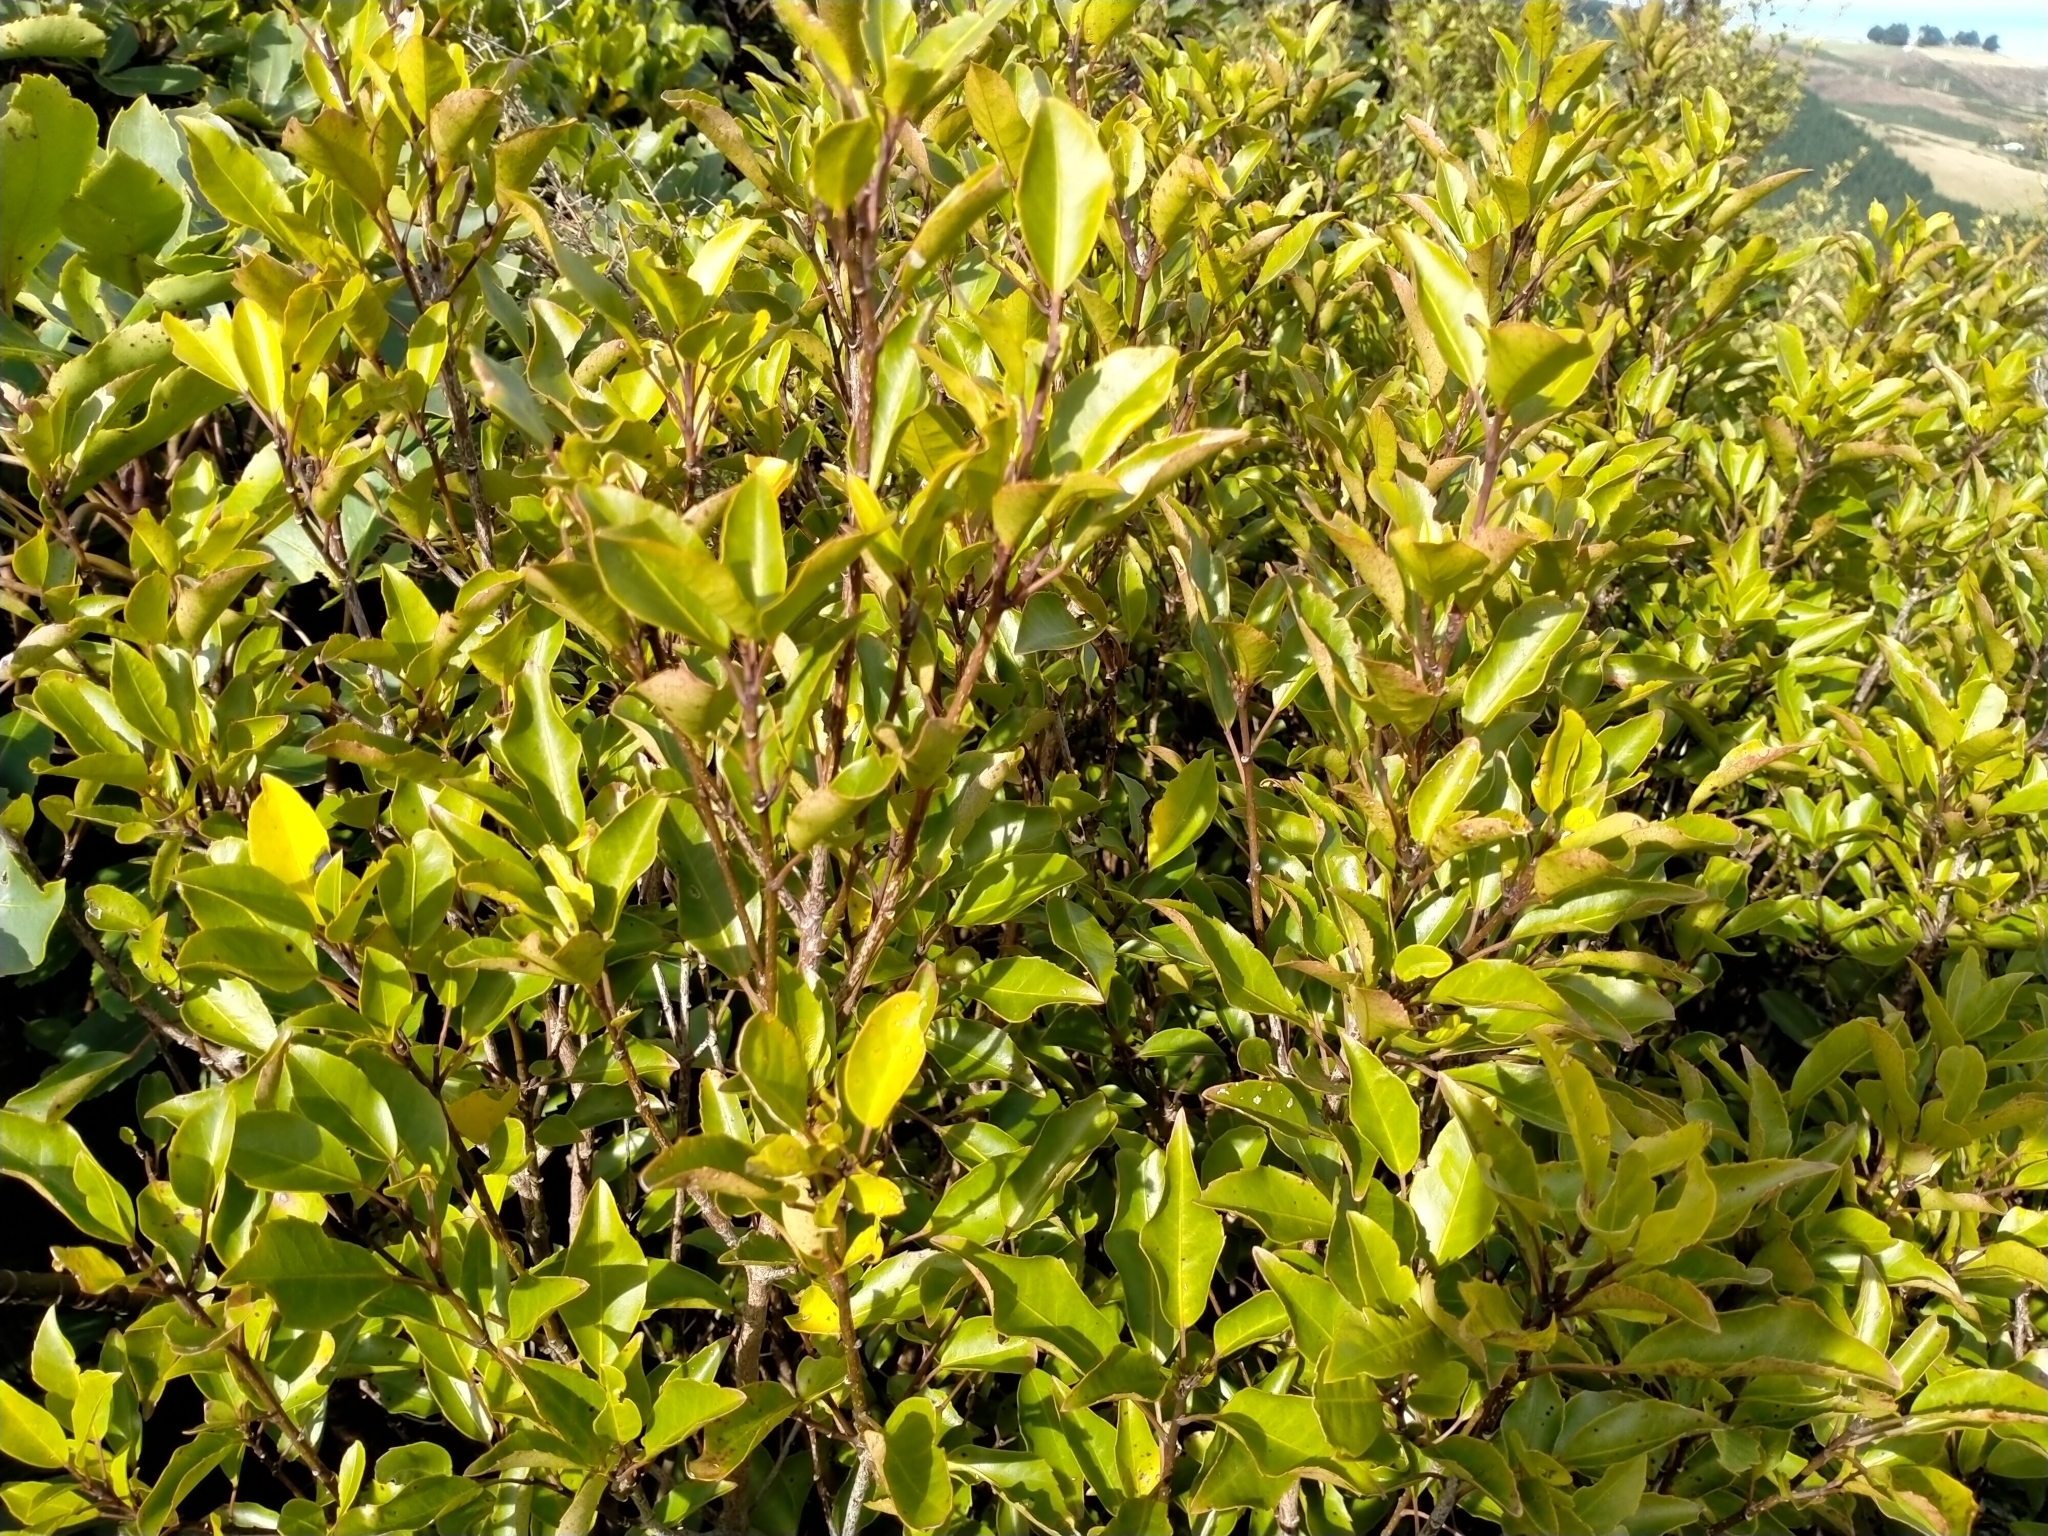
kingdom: Plantae
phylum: Tracheophyta
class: Magnoliopsida
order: Apiales
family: Araliaceae
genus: Raukaua
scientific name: Raukaua simplex
